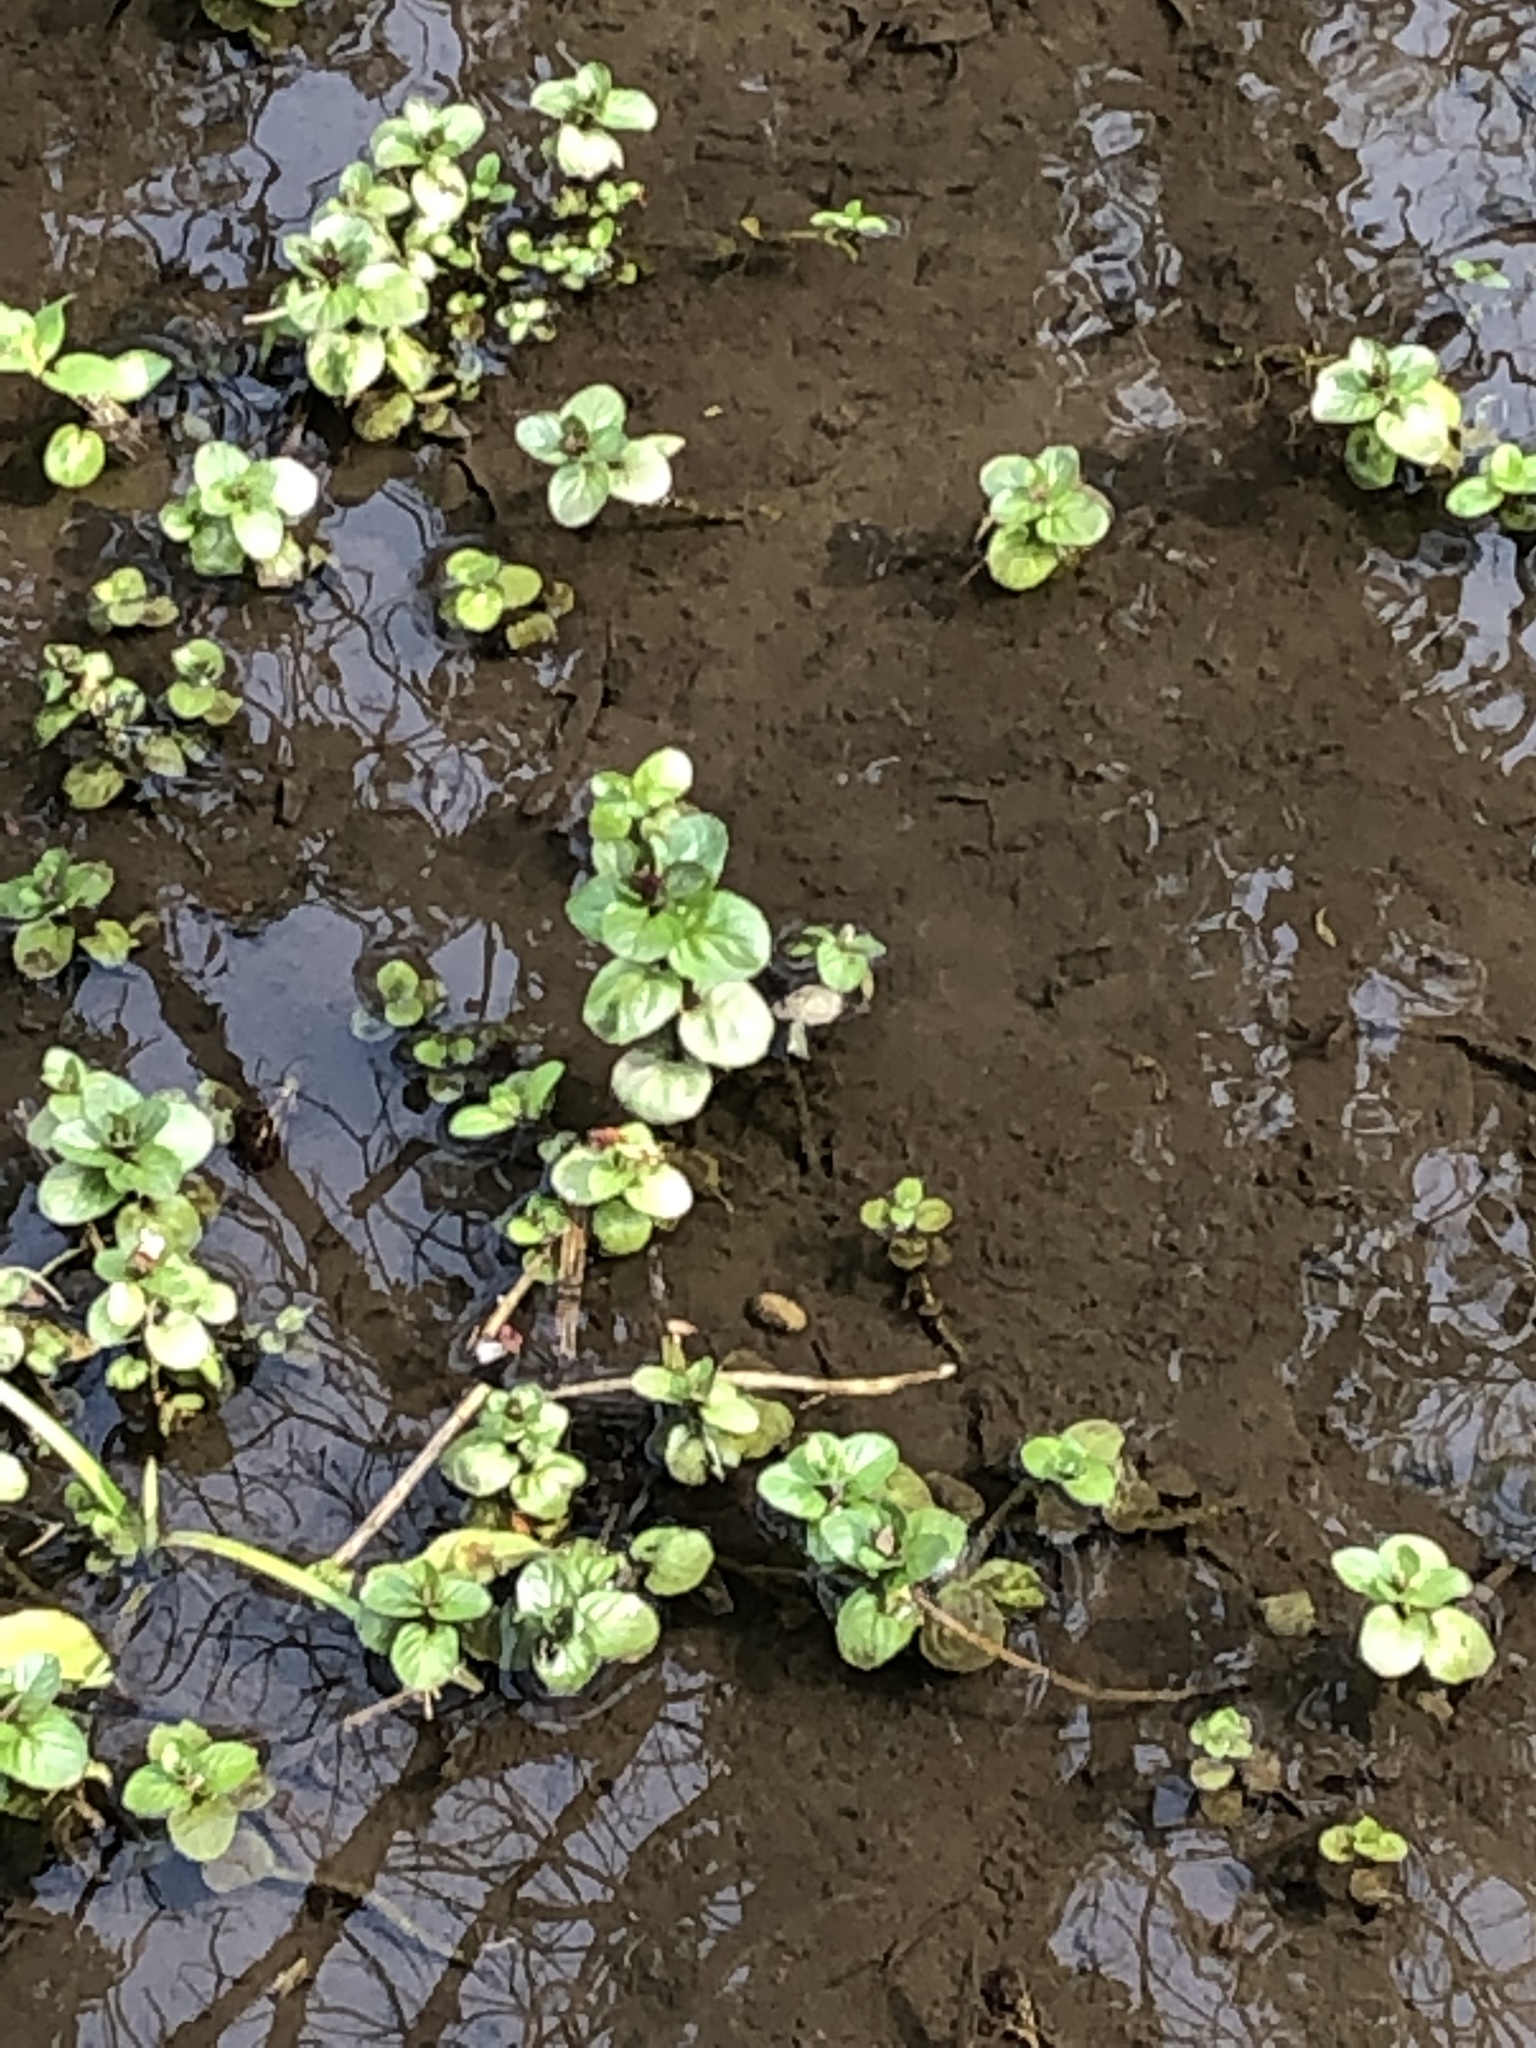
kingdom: Plantae
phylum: Tracheophyta
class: Magnoliopsida
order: Lamiales
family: Plantaginaceae
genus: Veronica
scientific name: Veronica beccabunga
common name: Brooklime
